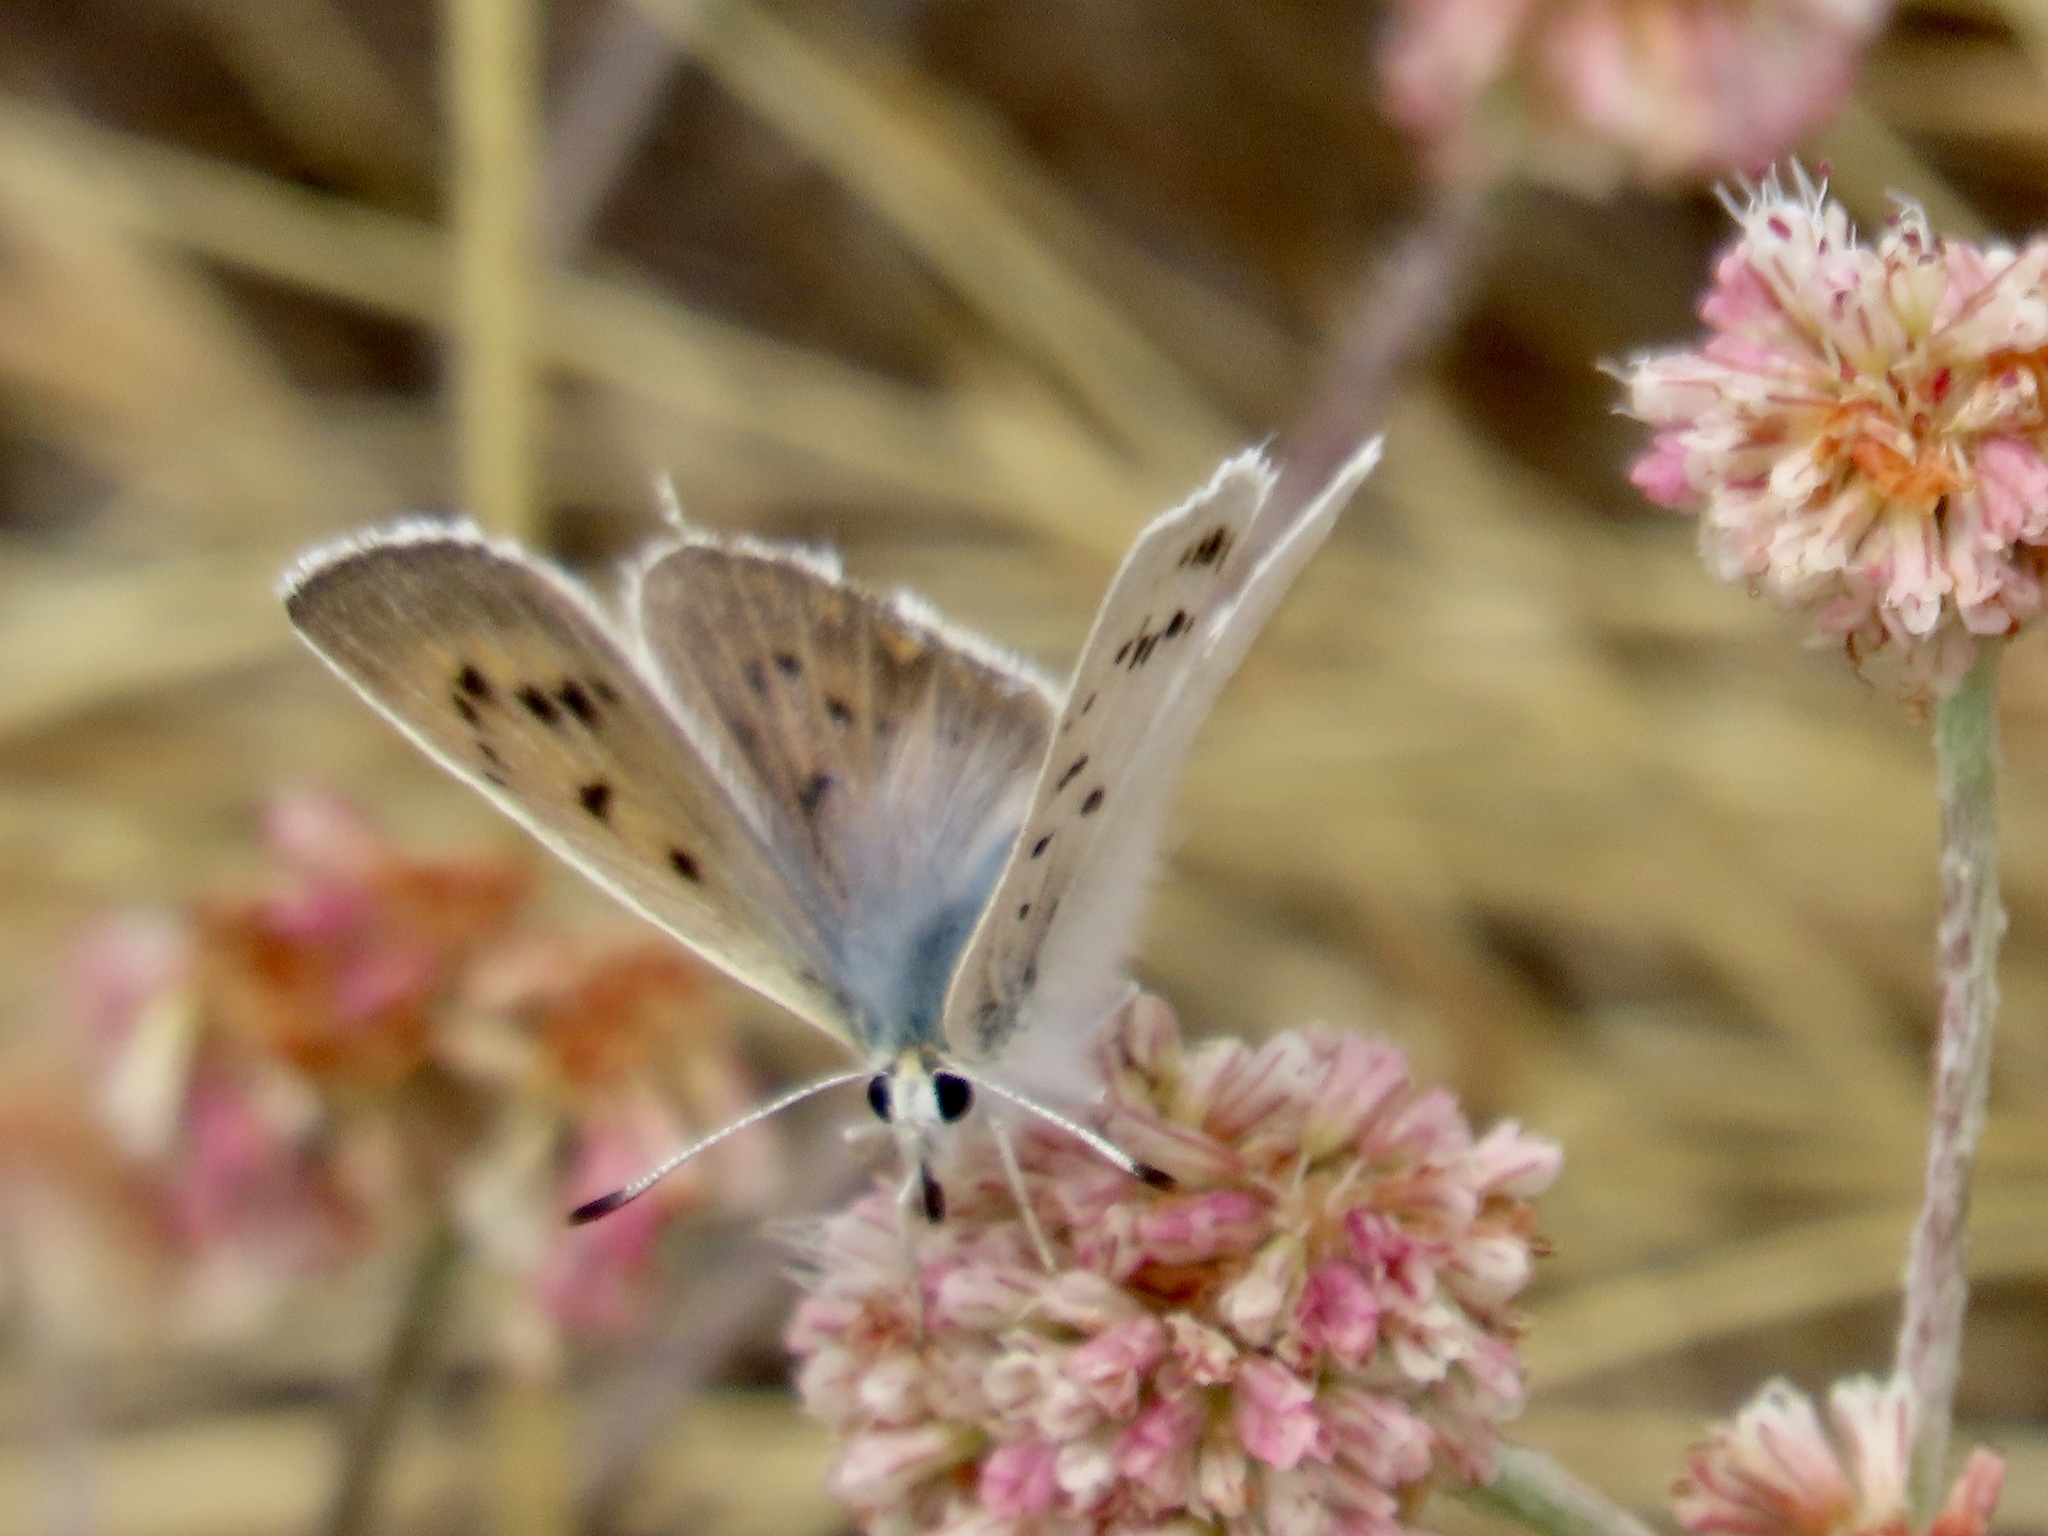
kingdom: Animalia
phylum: Arthropoda
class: Insecta
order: Lepidoptera
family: Lycaenidae
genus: Tharsalea
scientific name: Tharsalea heteronea
